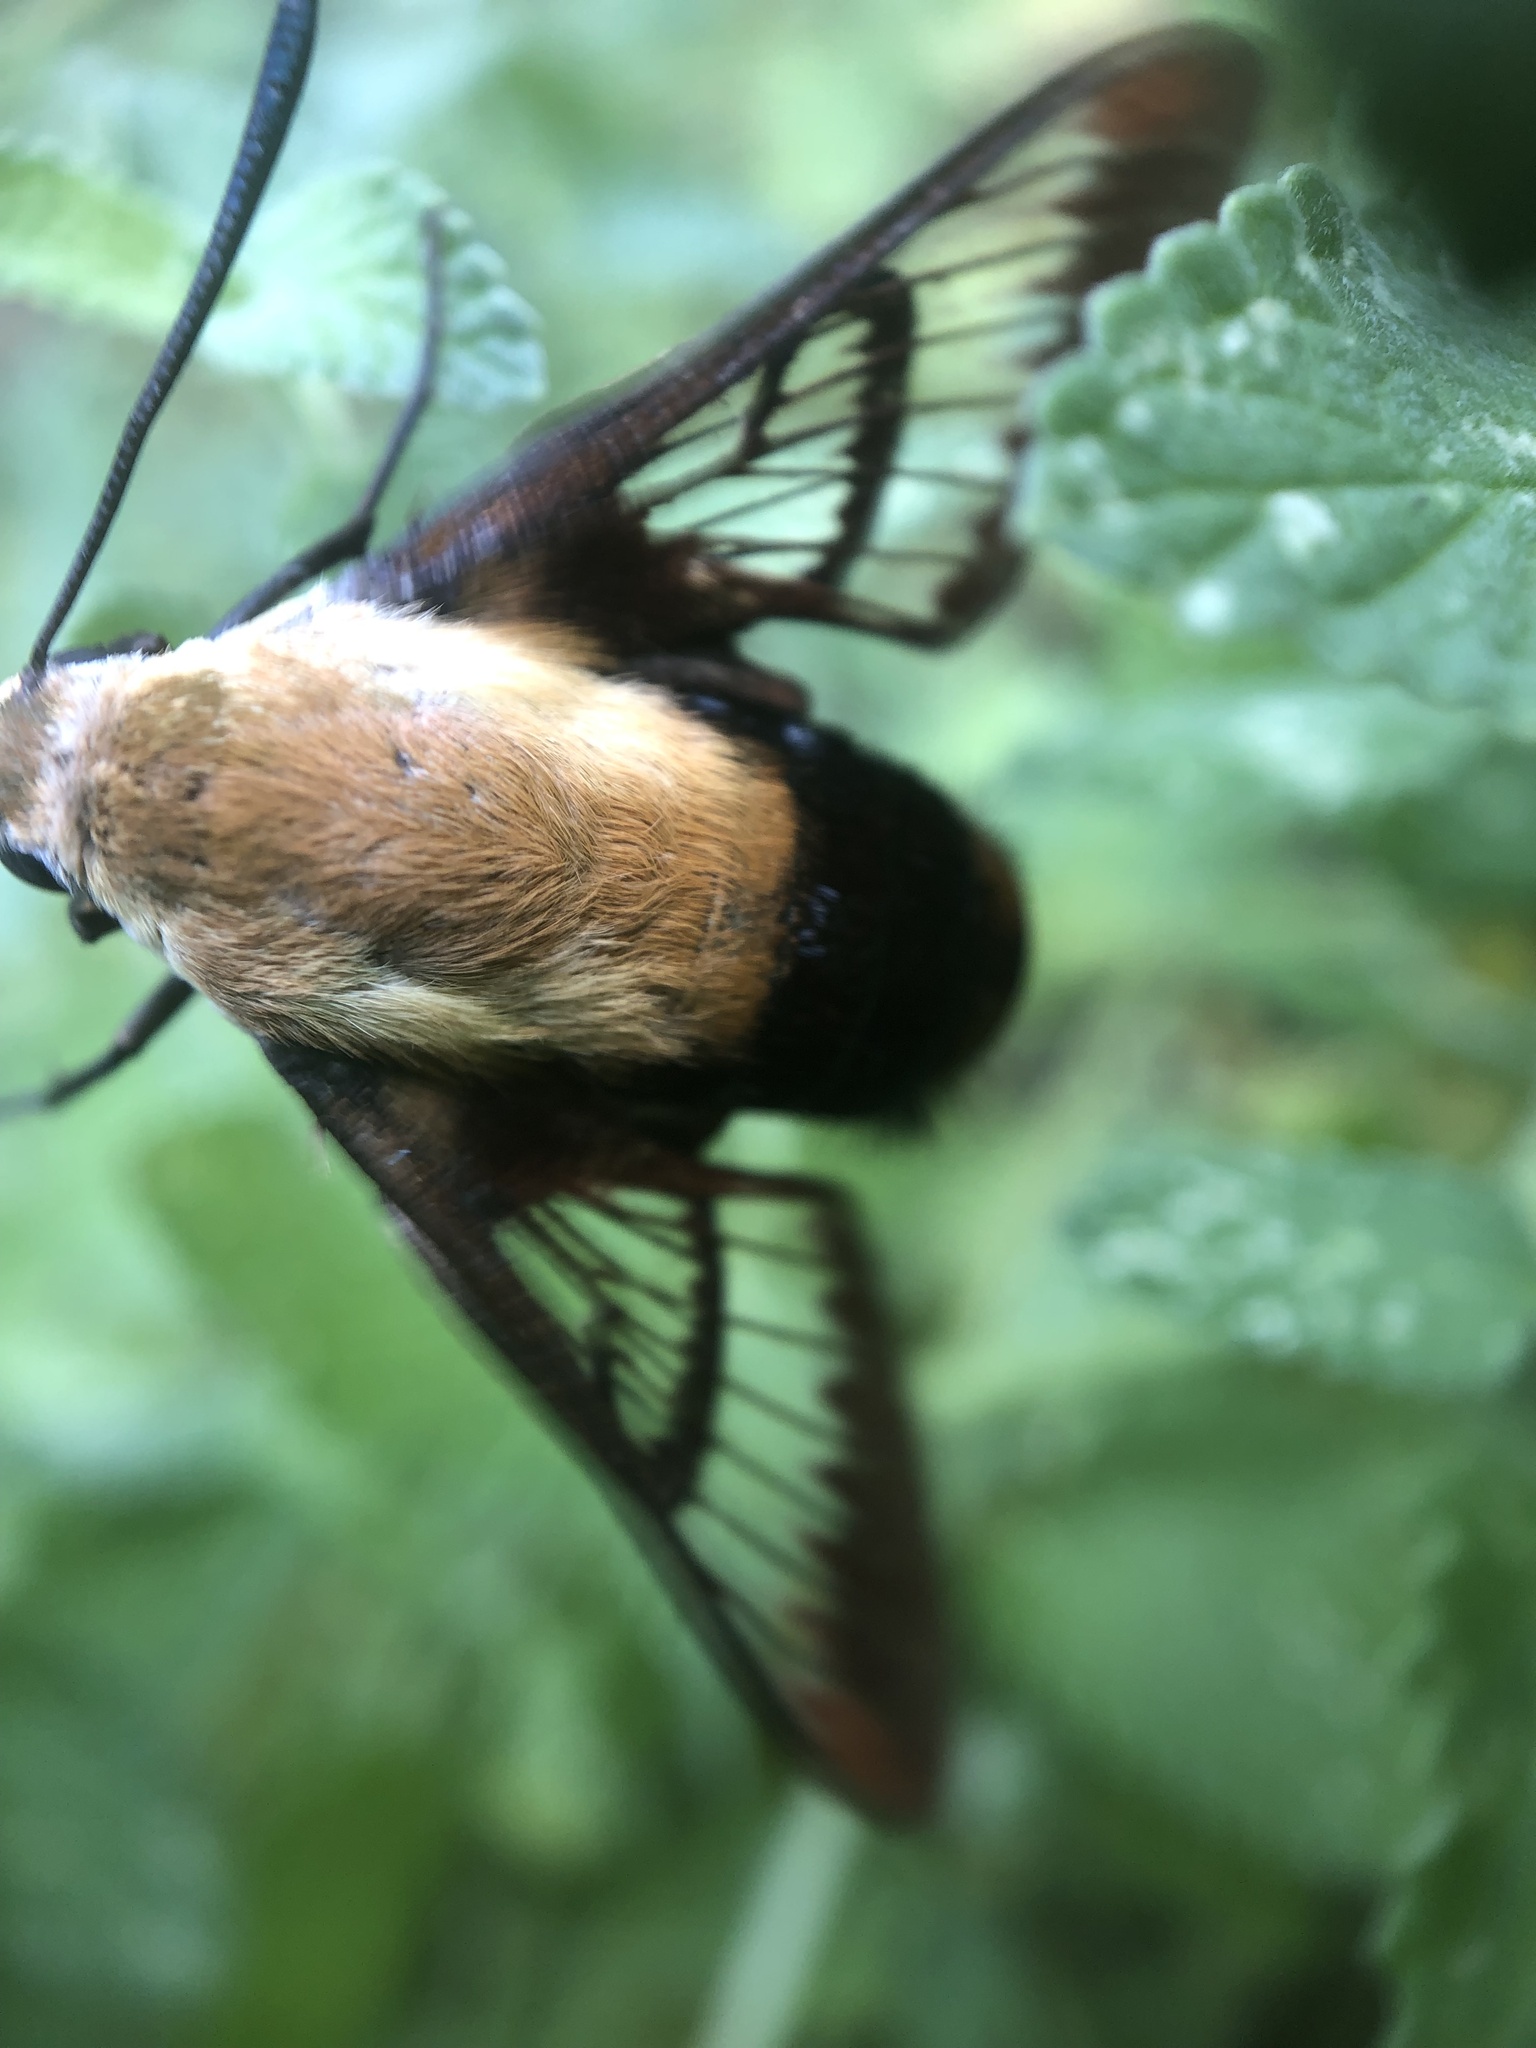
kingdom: Animalia
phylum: Arthropoda
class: Insecta
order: Lepidoptera
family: Sphingidae
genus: Hemaris
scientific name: Hemaris diffinis
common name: Bumblebee moth
